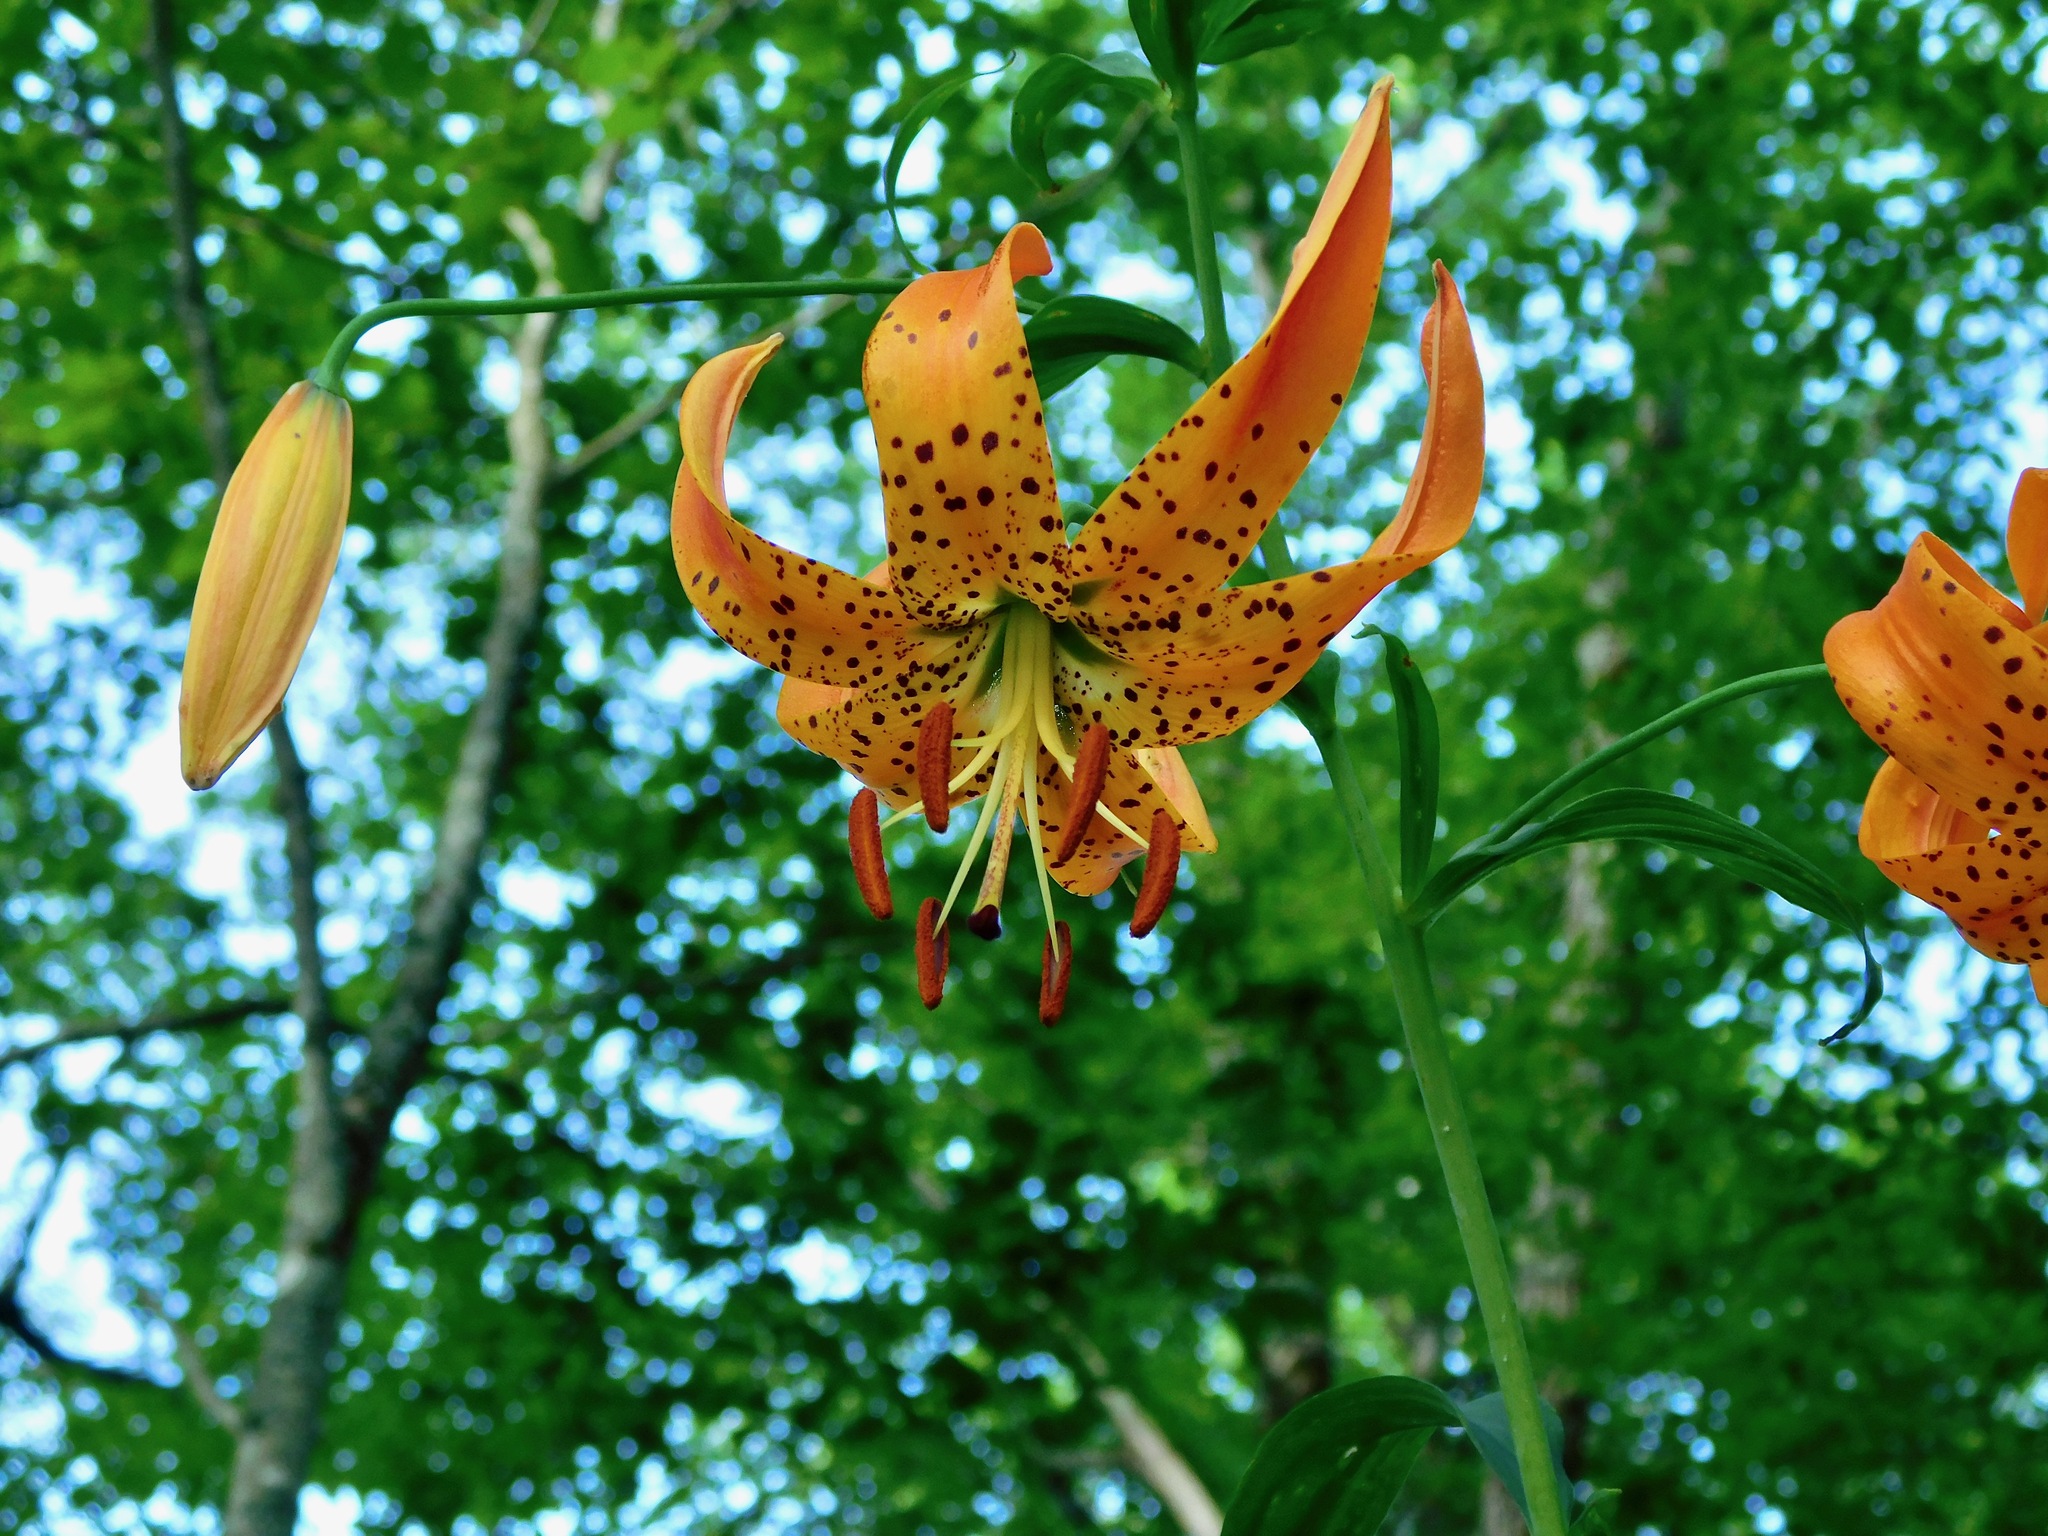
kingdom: Plantae
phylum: Tracheophyta
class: Liliopsida
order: Liliales
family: Liliaceae
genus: Lilium
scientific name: Lilium superbum
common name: American turk's-cap lily
